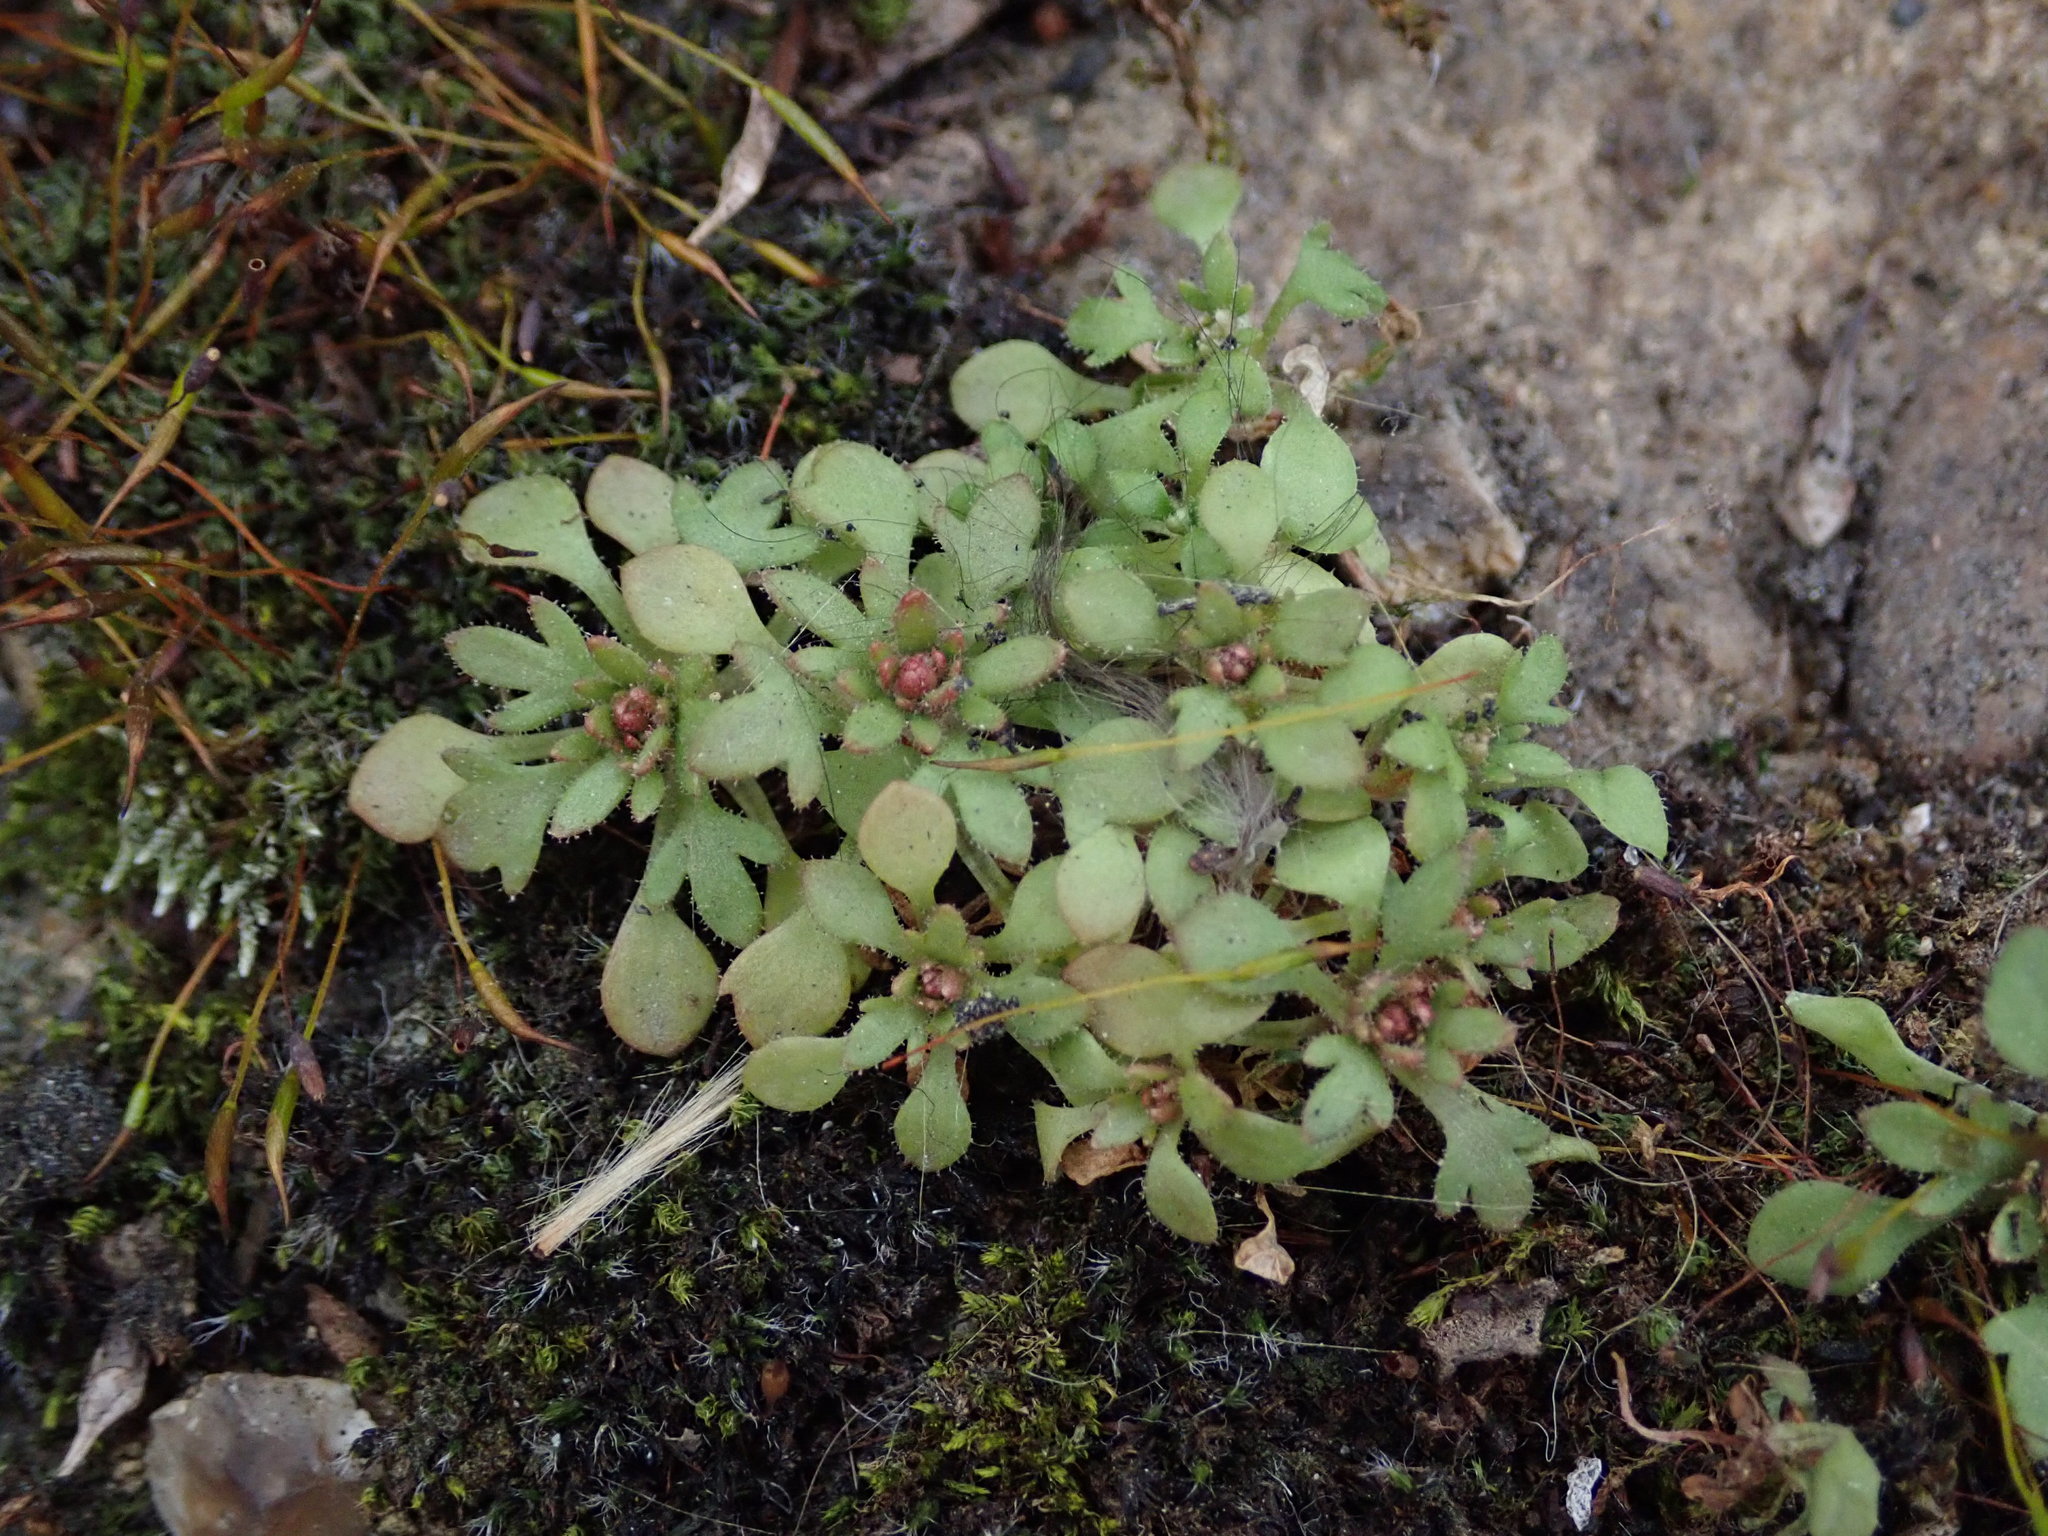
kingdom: Plantae
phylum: Tracheophyta
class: Magnoliopsida
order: Saxifragales
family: Saxifragaceae
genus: Saxifraga
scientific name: Saxifraga tridactylites
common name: Rue-leaved saxifrage
